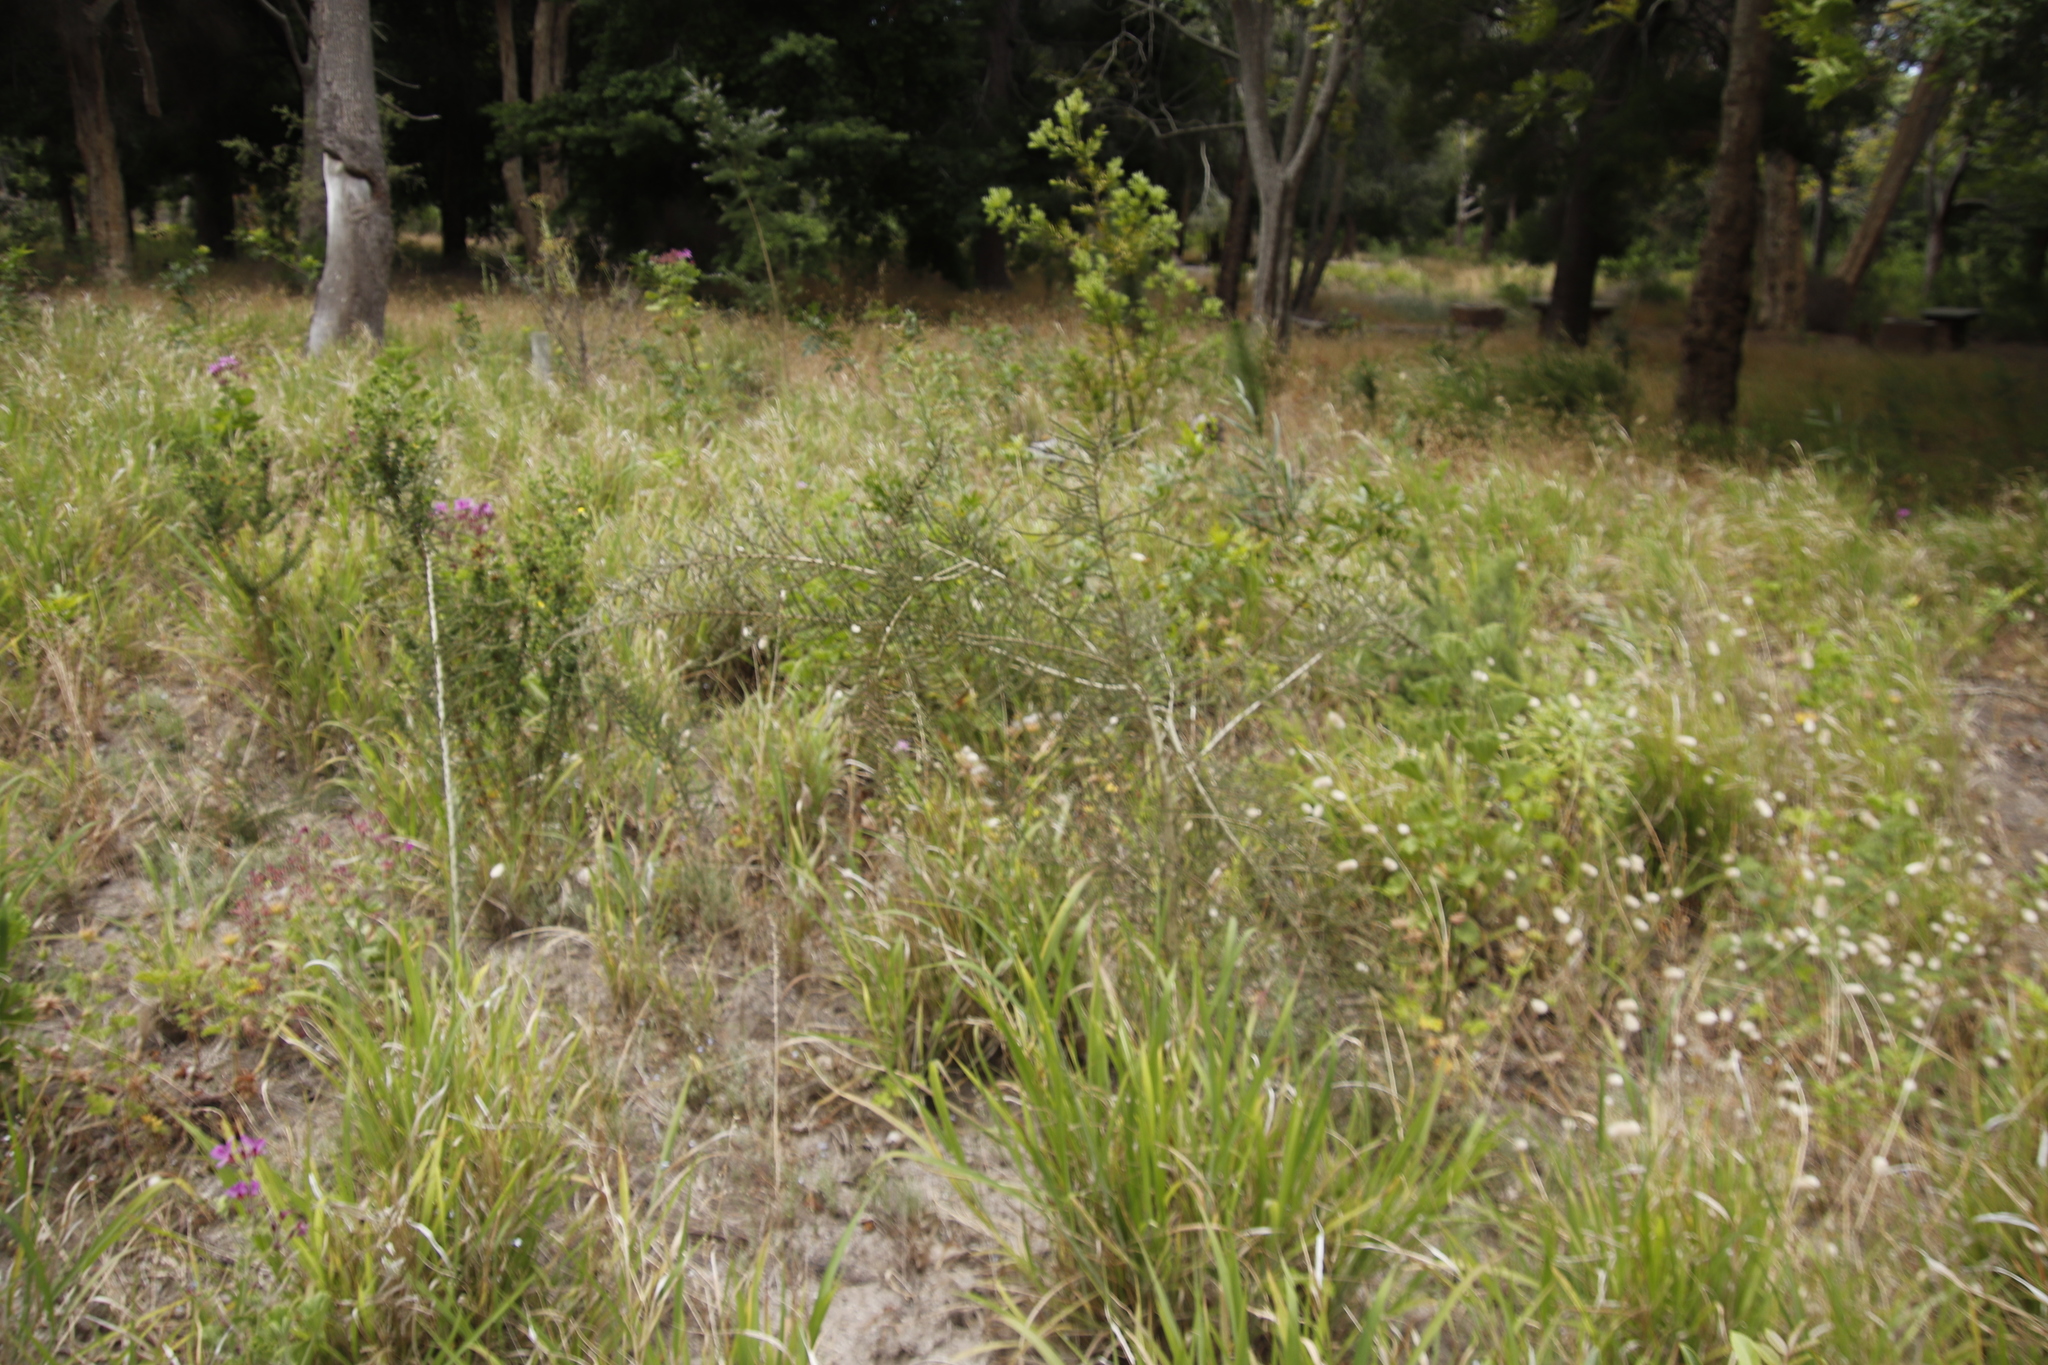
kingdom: Plantae
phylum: Tracheophyta
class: Magnoliopsida
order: Fabales
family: Fabaceae
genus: Aspalathus
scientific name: Aspalathus hispida
